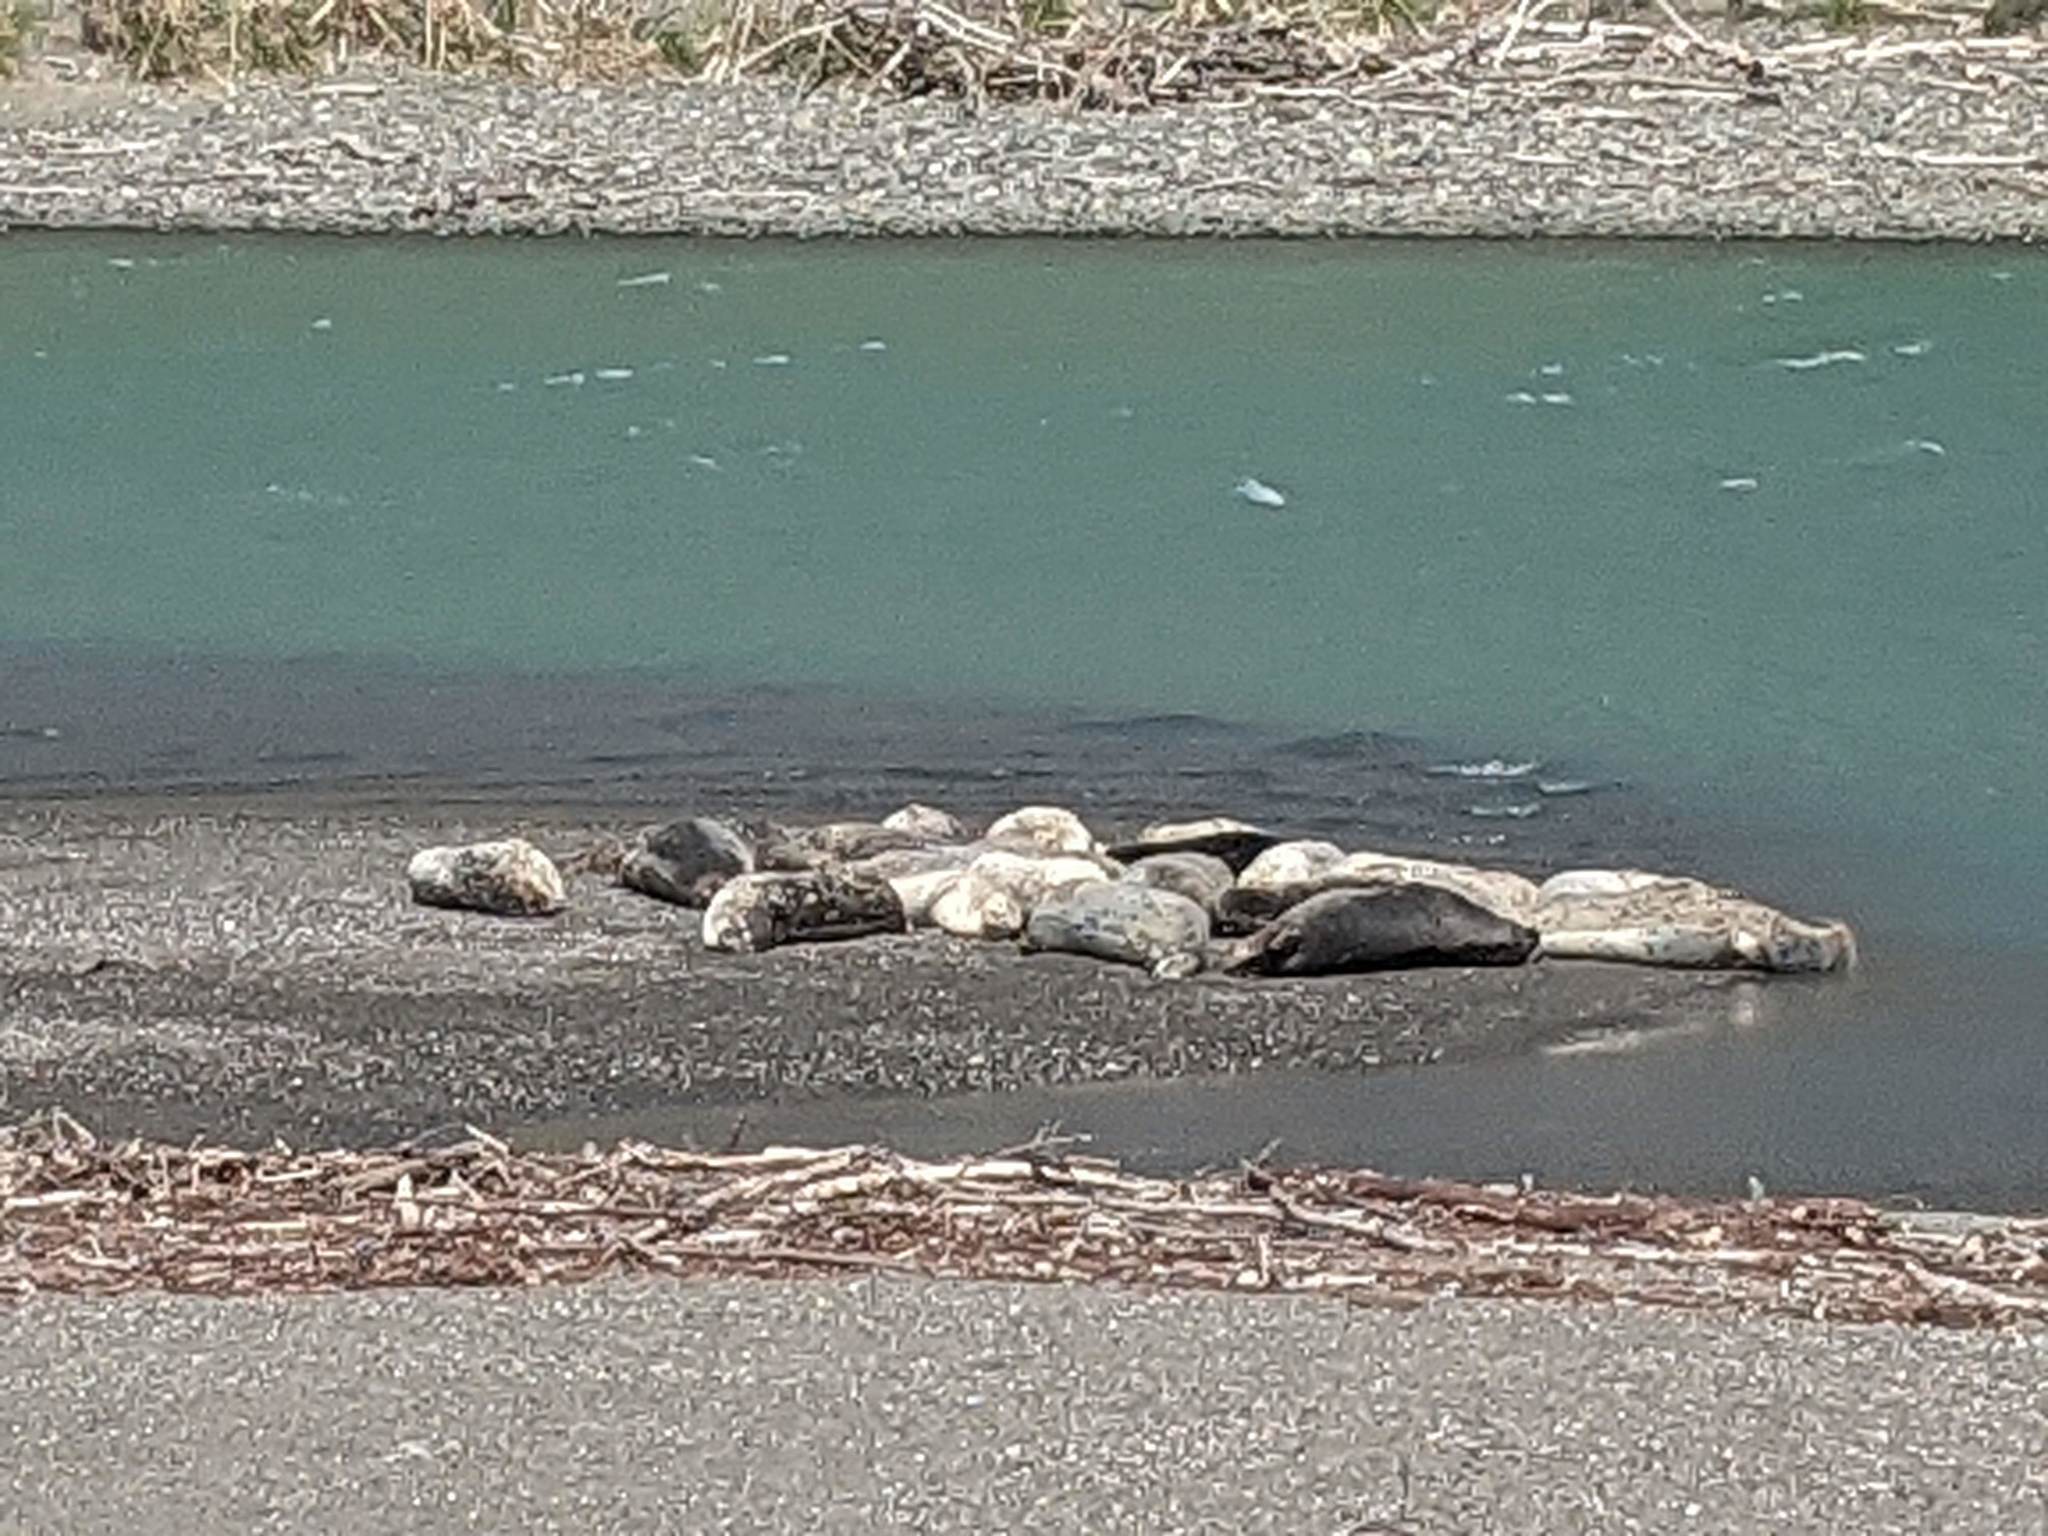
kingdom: Animalia
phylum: Chordata
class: Mammalia
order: Carnivora
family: Phocidae
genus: Phoca
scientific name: Phoca vitulina
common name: Harbor seal
